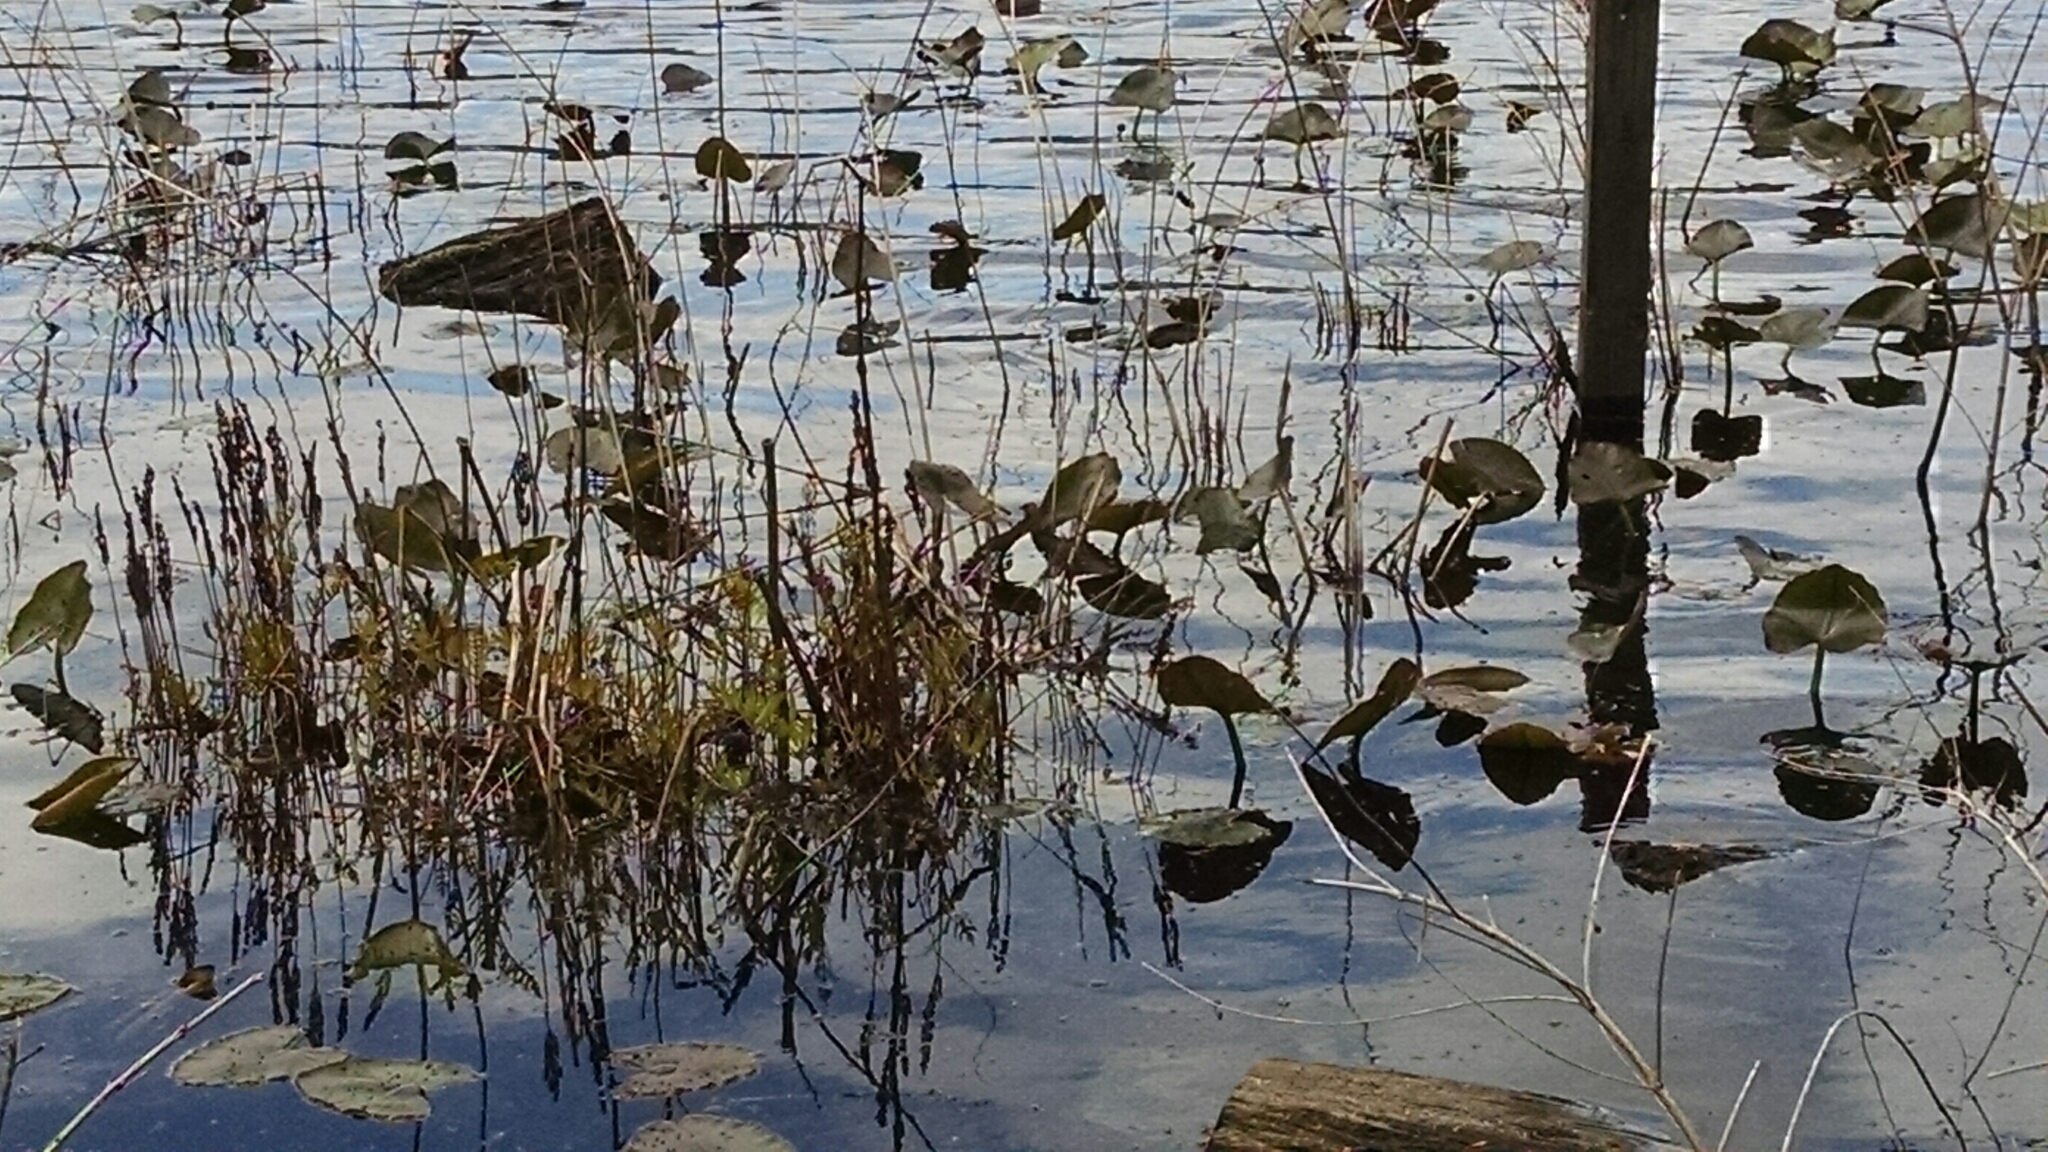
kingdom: Plantae
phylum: Tracheophyta
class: Magnoliopsida
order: Nymphaeales
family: Nymphaeaceae
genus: Nuphar
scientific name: Nuphar advena
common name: Spatter-dock
